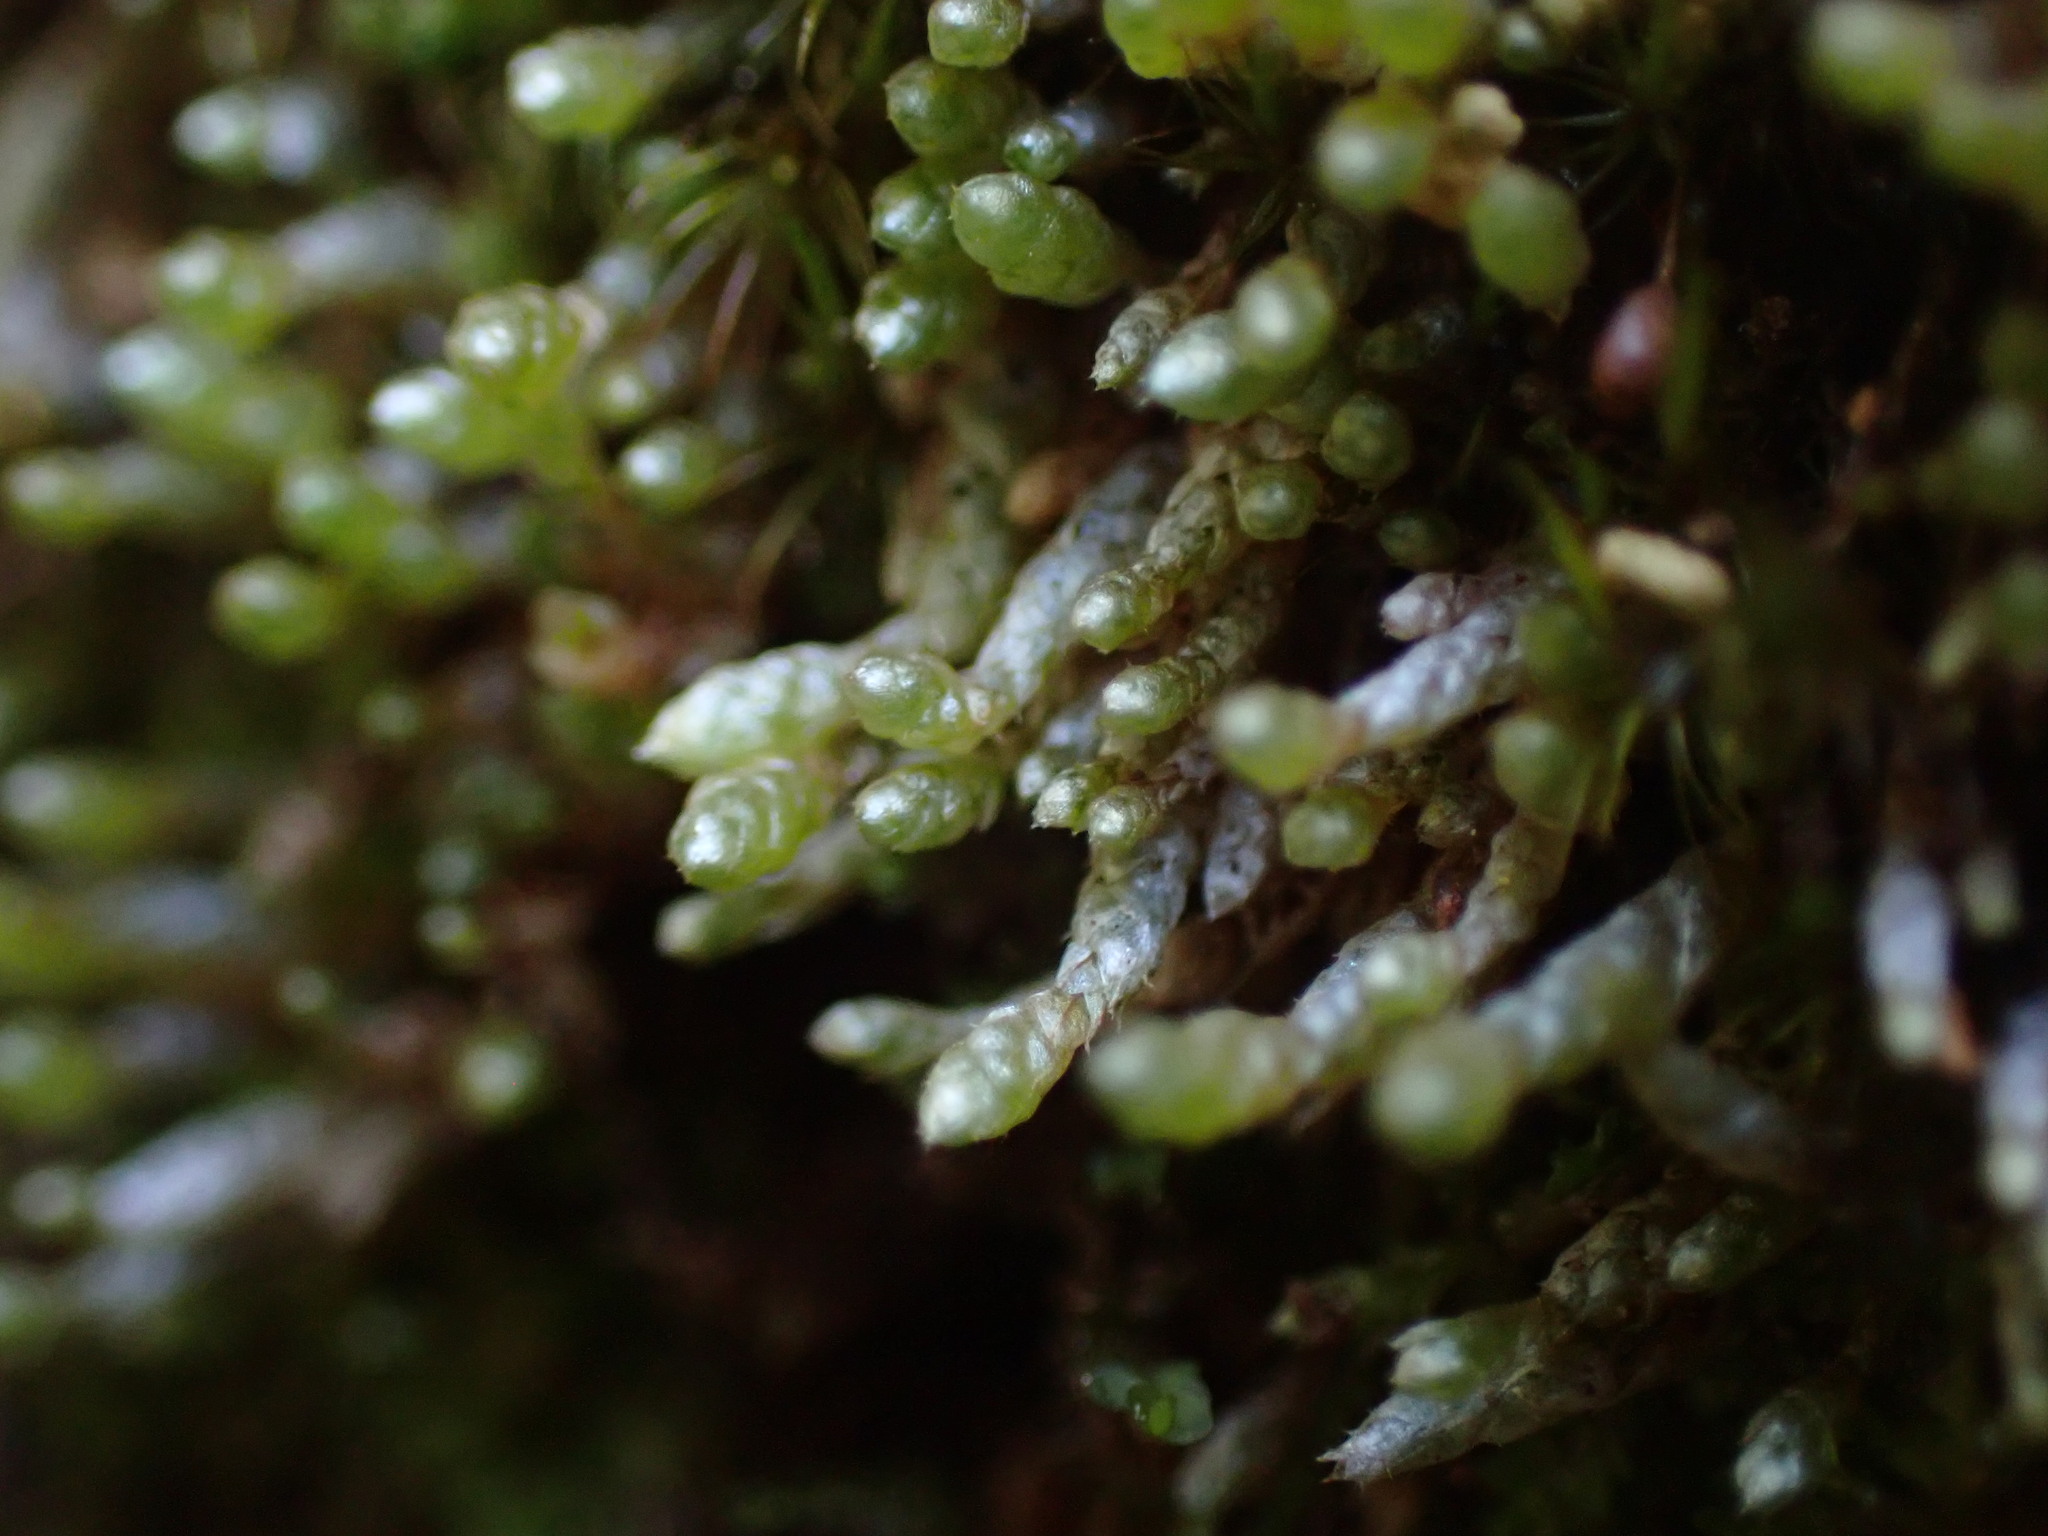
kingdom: Plantae
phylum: Bryophyta
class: Bryopsida
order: Bryales
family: Bryaceae
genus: Bryum
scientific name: Bryum argenteum
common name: Silver-moss
